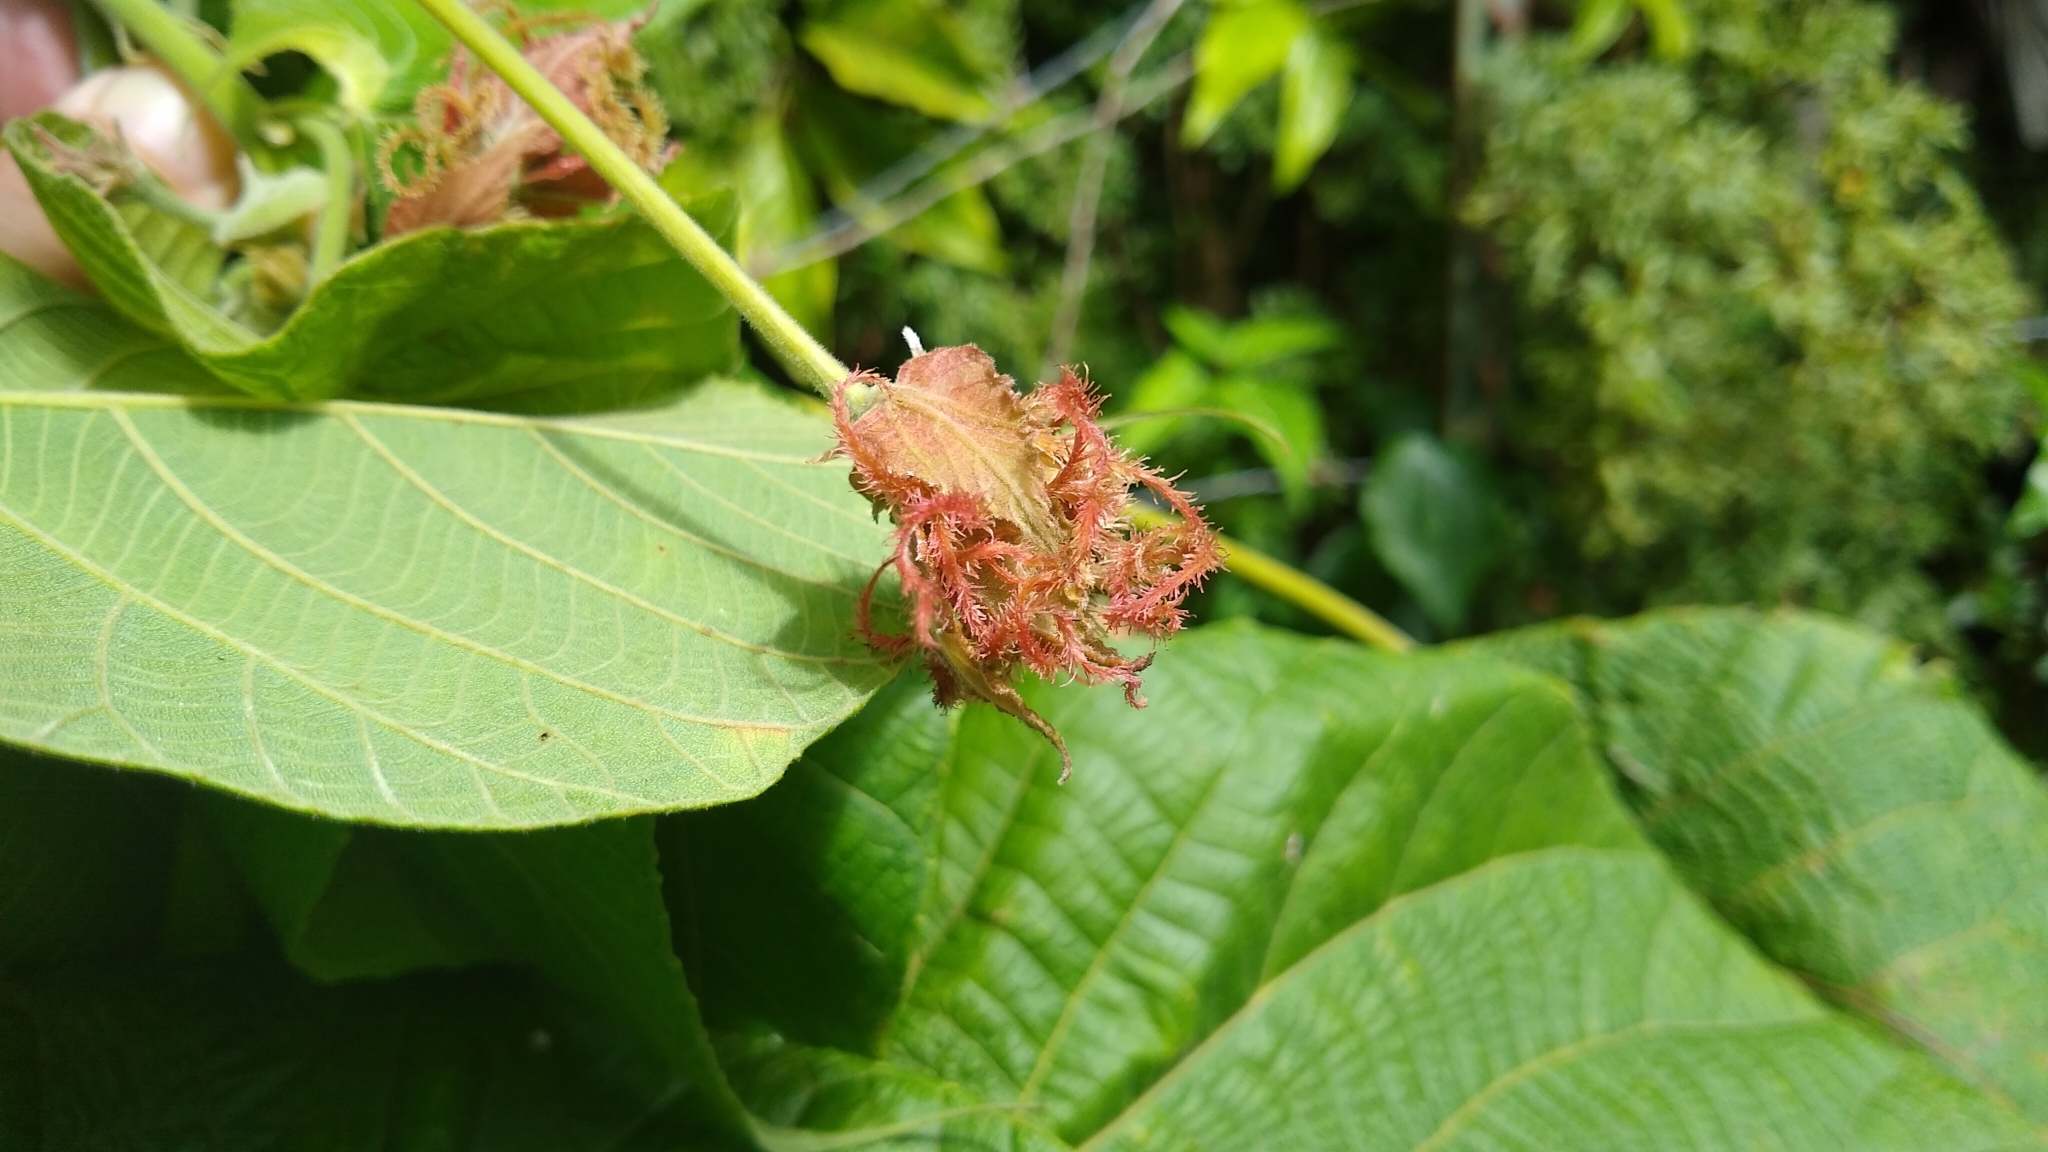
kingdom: Plantae
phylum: Tracheophyta
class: Magnoliopsida
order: Malpighiales
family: Euphorbiaceae
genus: Macaranga
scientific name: Macaranga carolinensis
